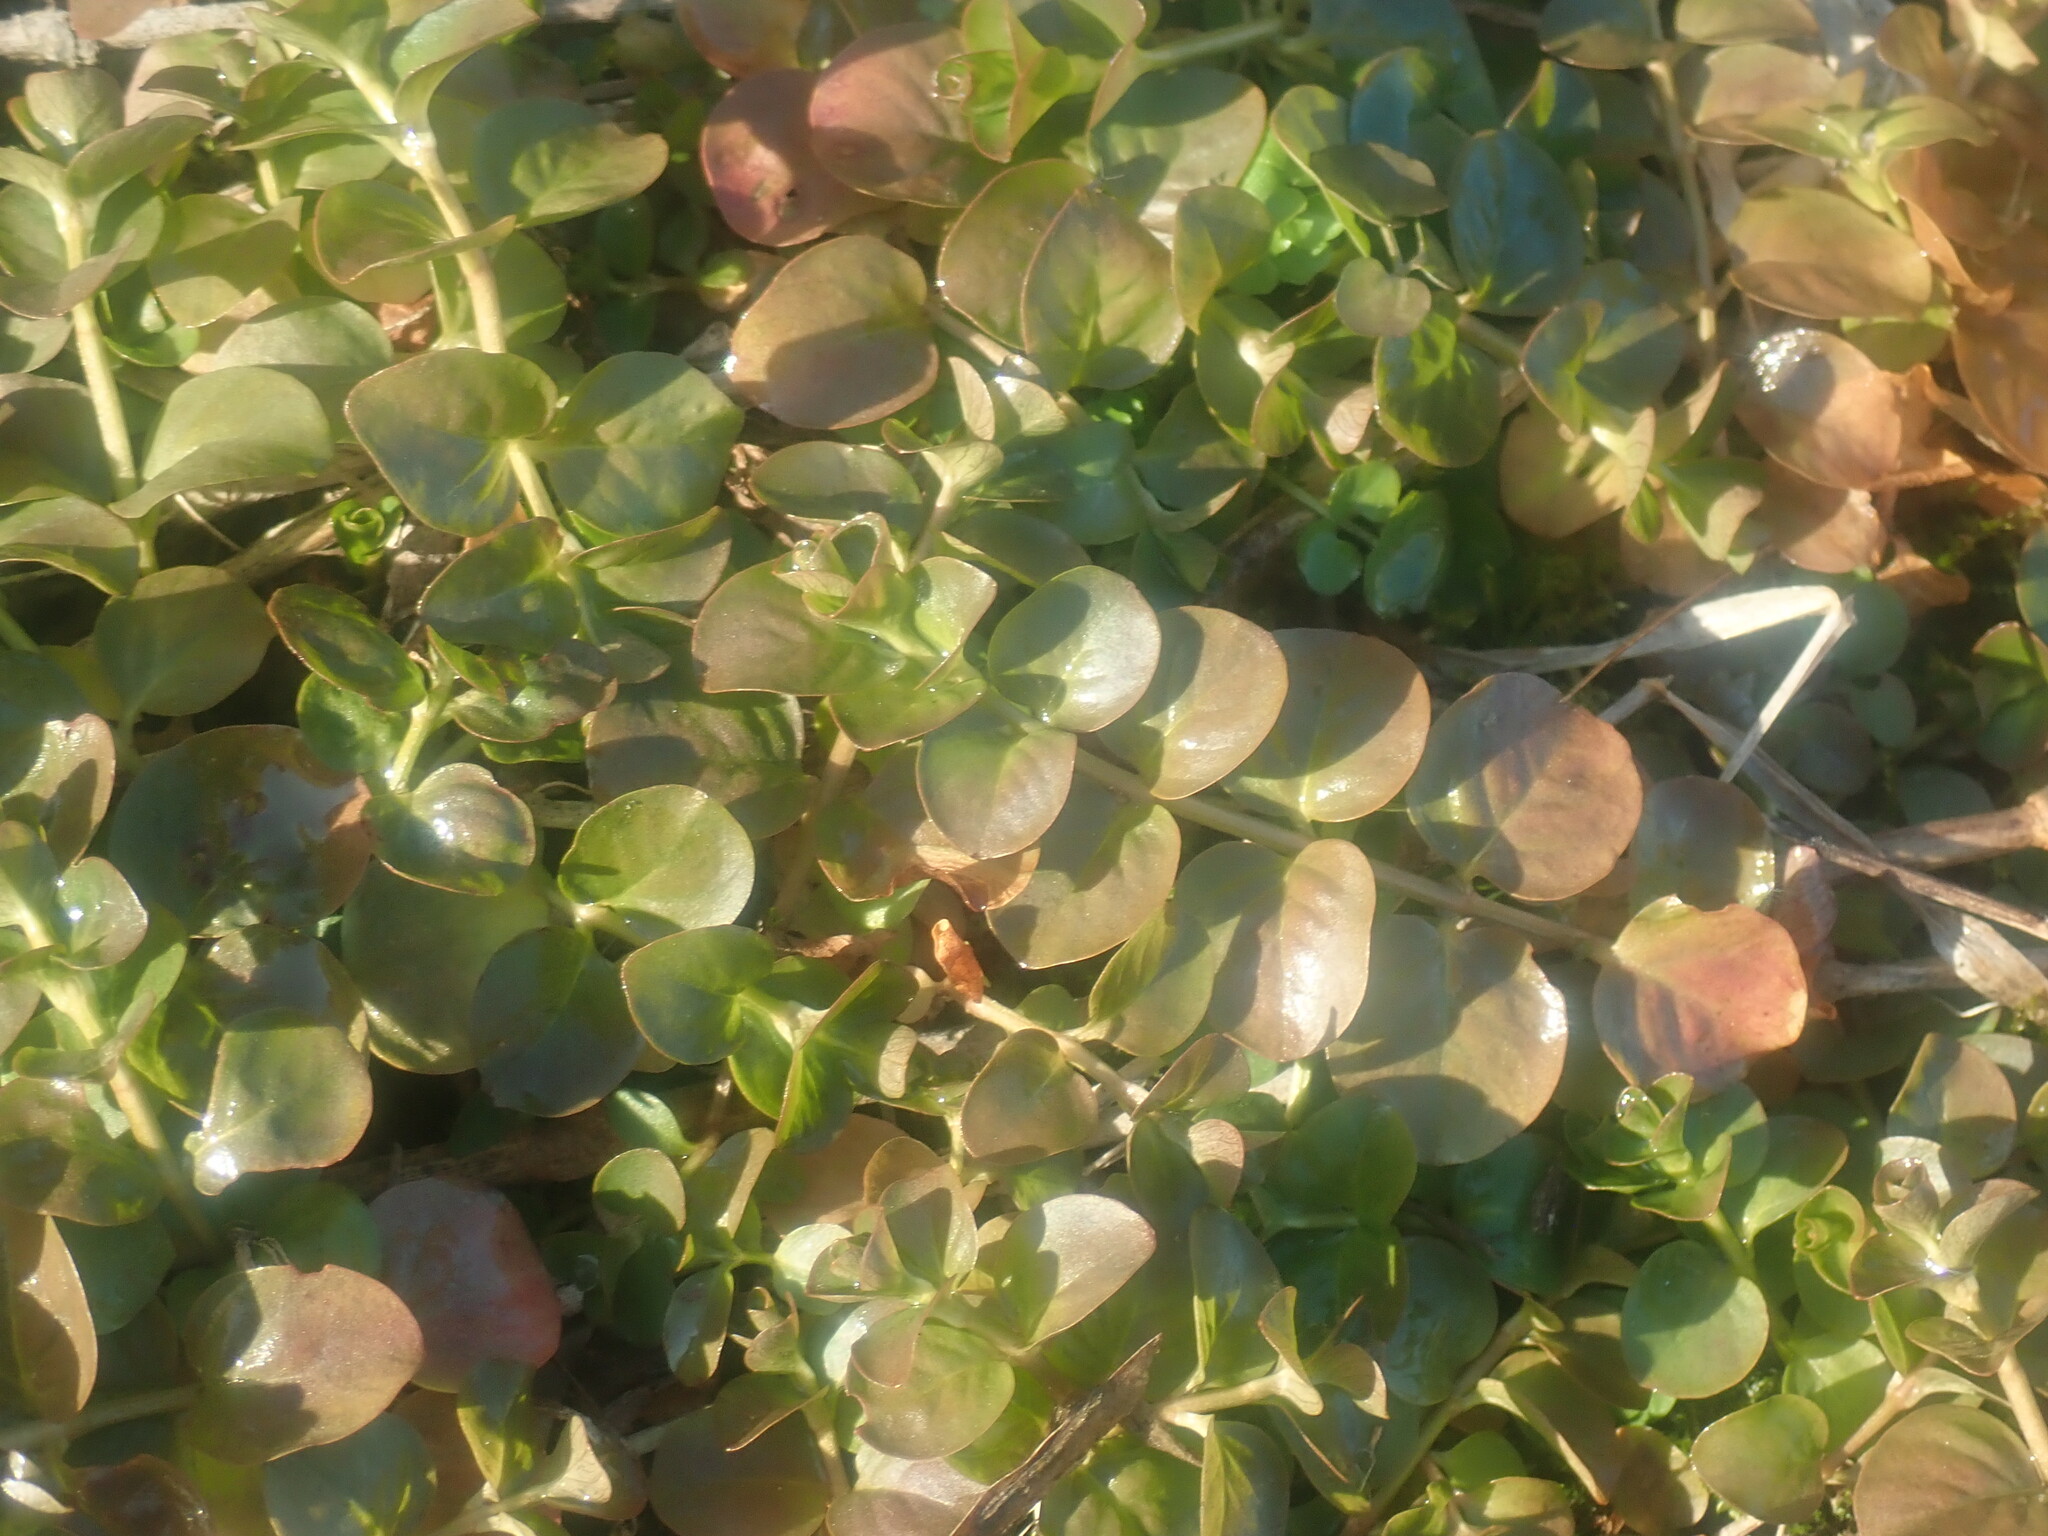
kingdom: Plantae
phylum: Tracheophyta
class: Magnoliopsida
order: Ericales
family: Primulaceae
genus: Lysimachia
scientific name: Lysimachia nummularia
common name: Moneywort
